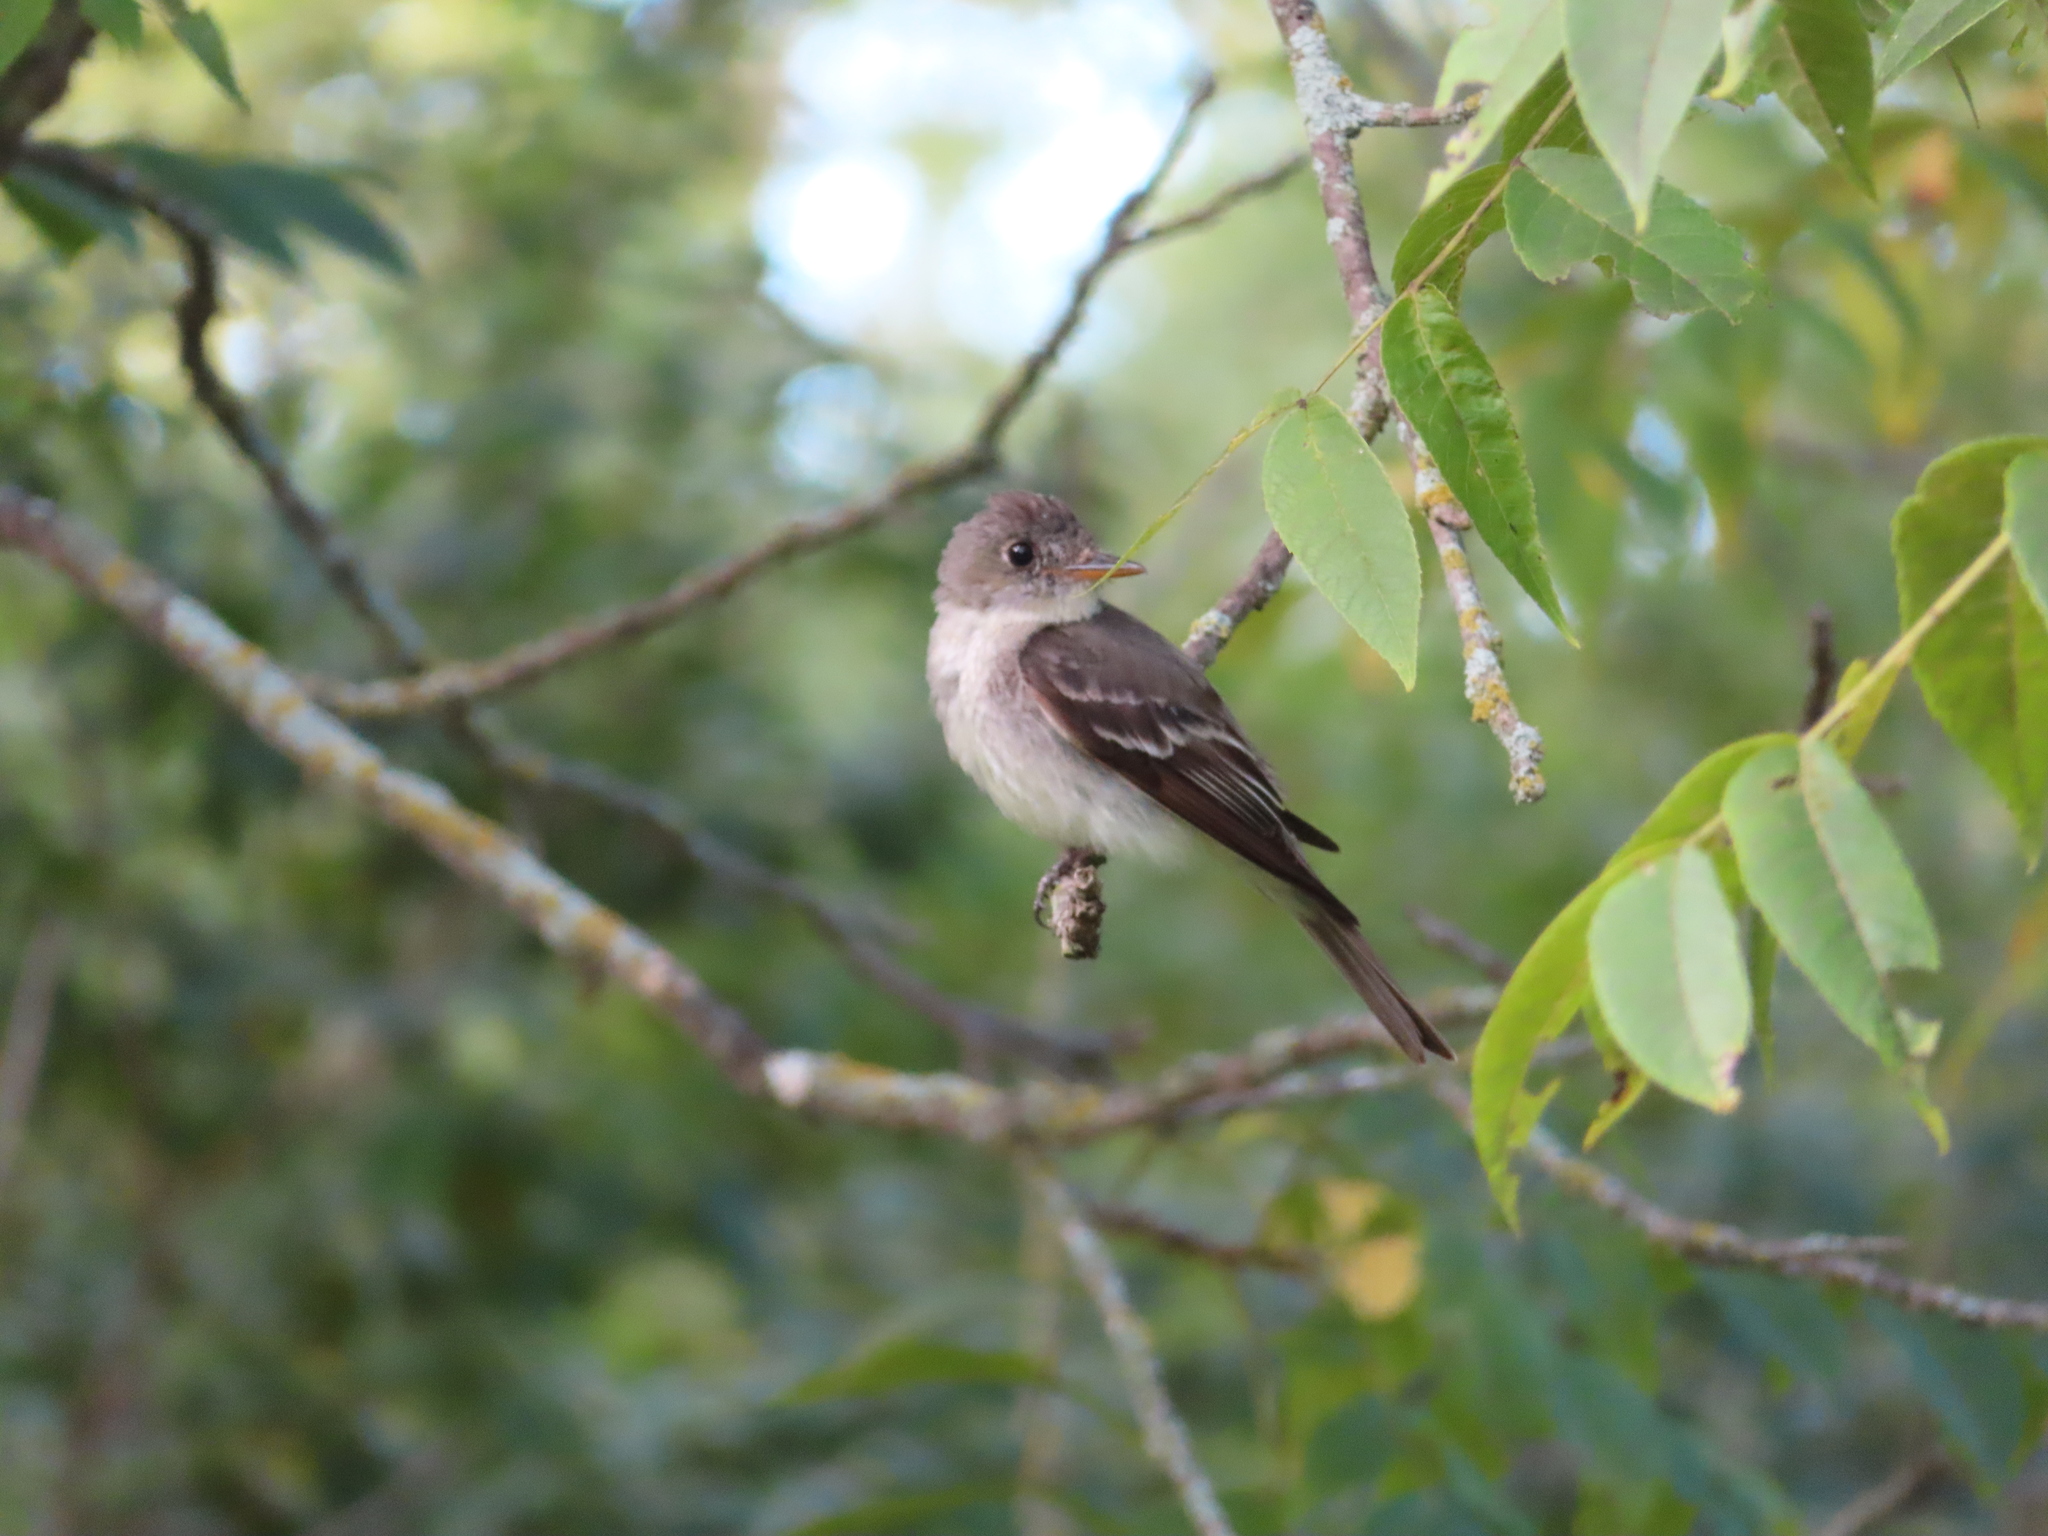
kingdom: Animalia
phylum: Chordata
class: Aves
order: Passeriformes
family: Tyrannidae
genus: Contopus
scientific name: Contopus virens
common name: Eastern wood-pewee
